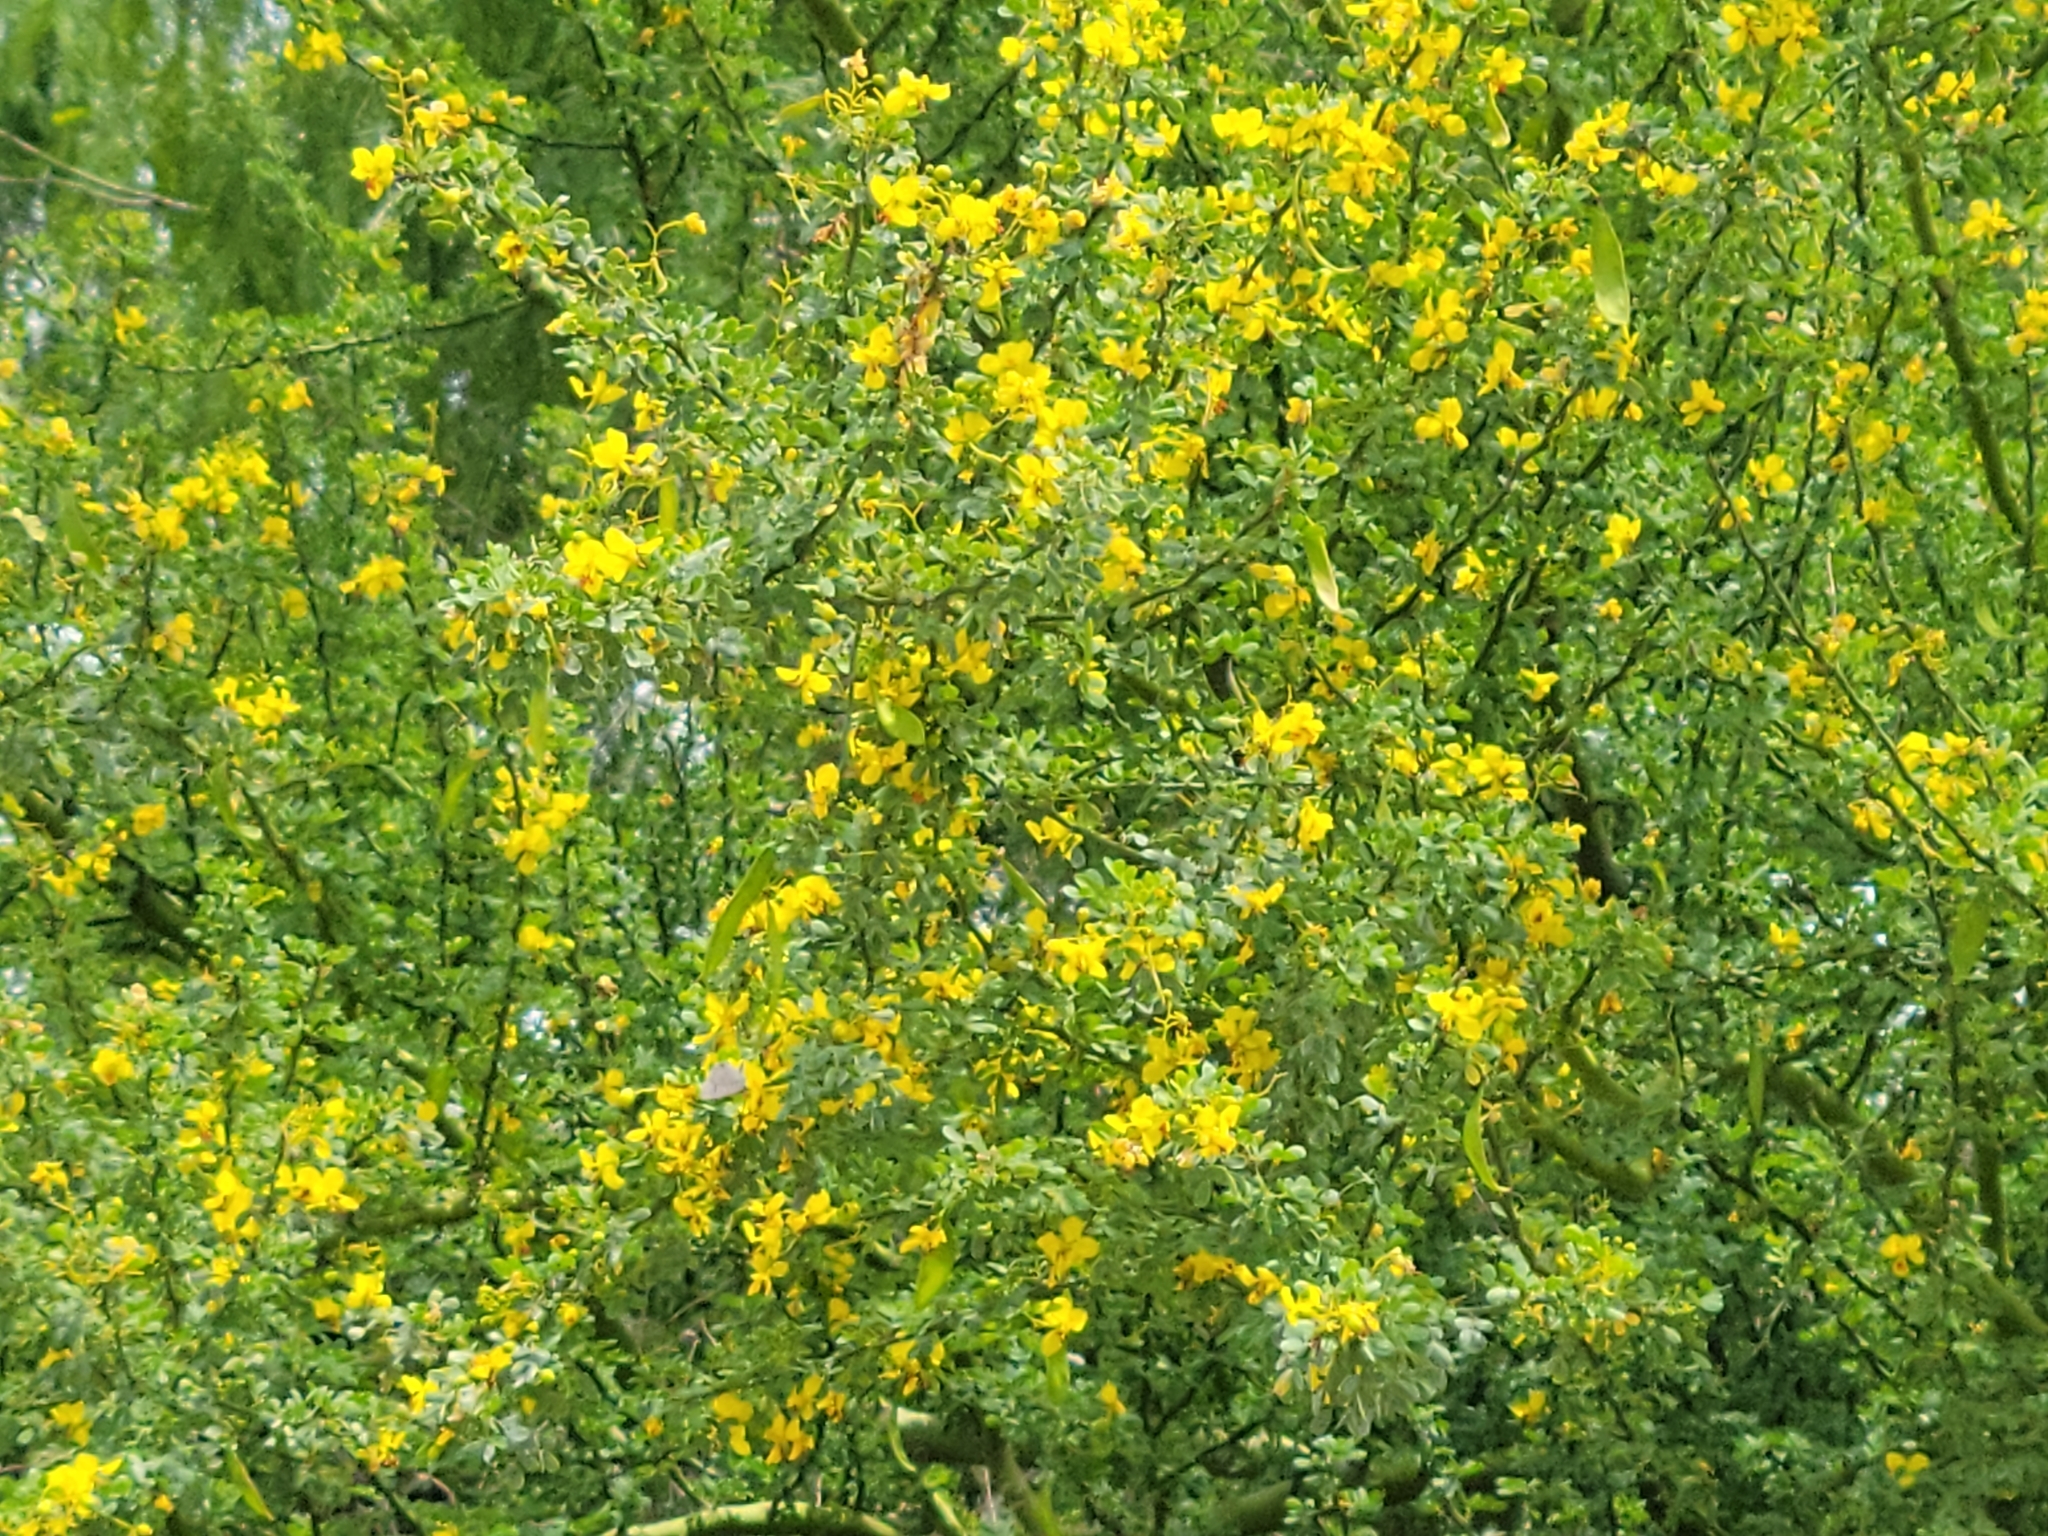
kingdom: Plantae
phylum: Tracheophyta
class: Magnoliopsida
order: Fabales
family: Fabaceae
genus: Parkinsonia
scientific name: Parkinsonia texana
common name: Texas paloverde
